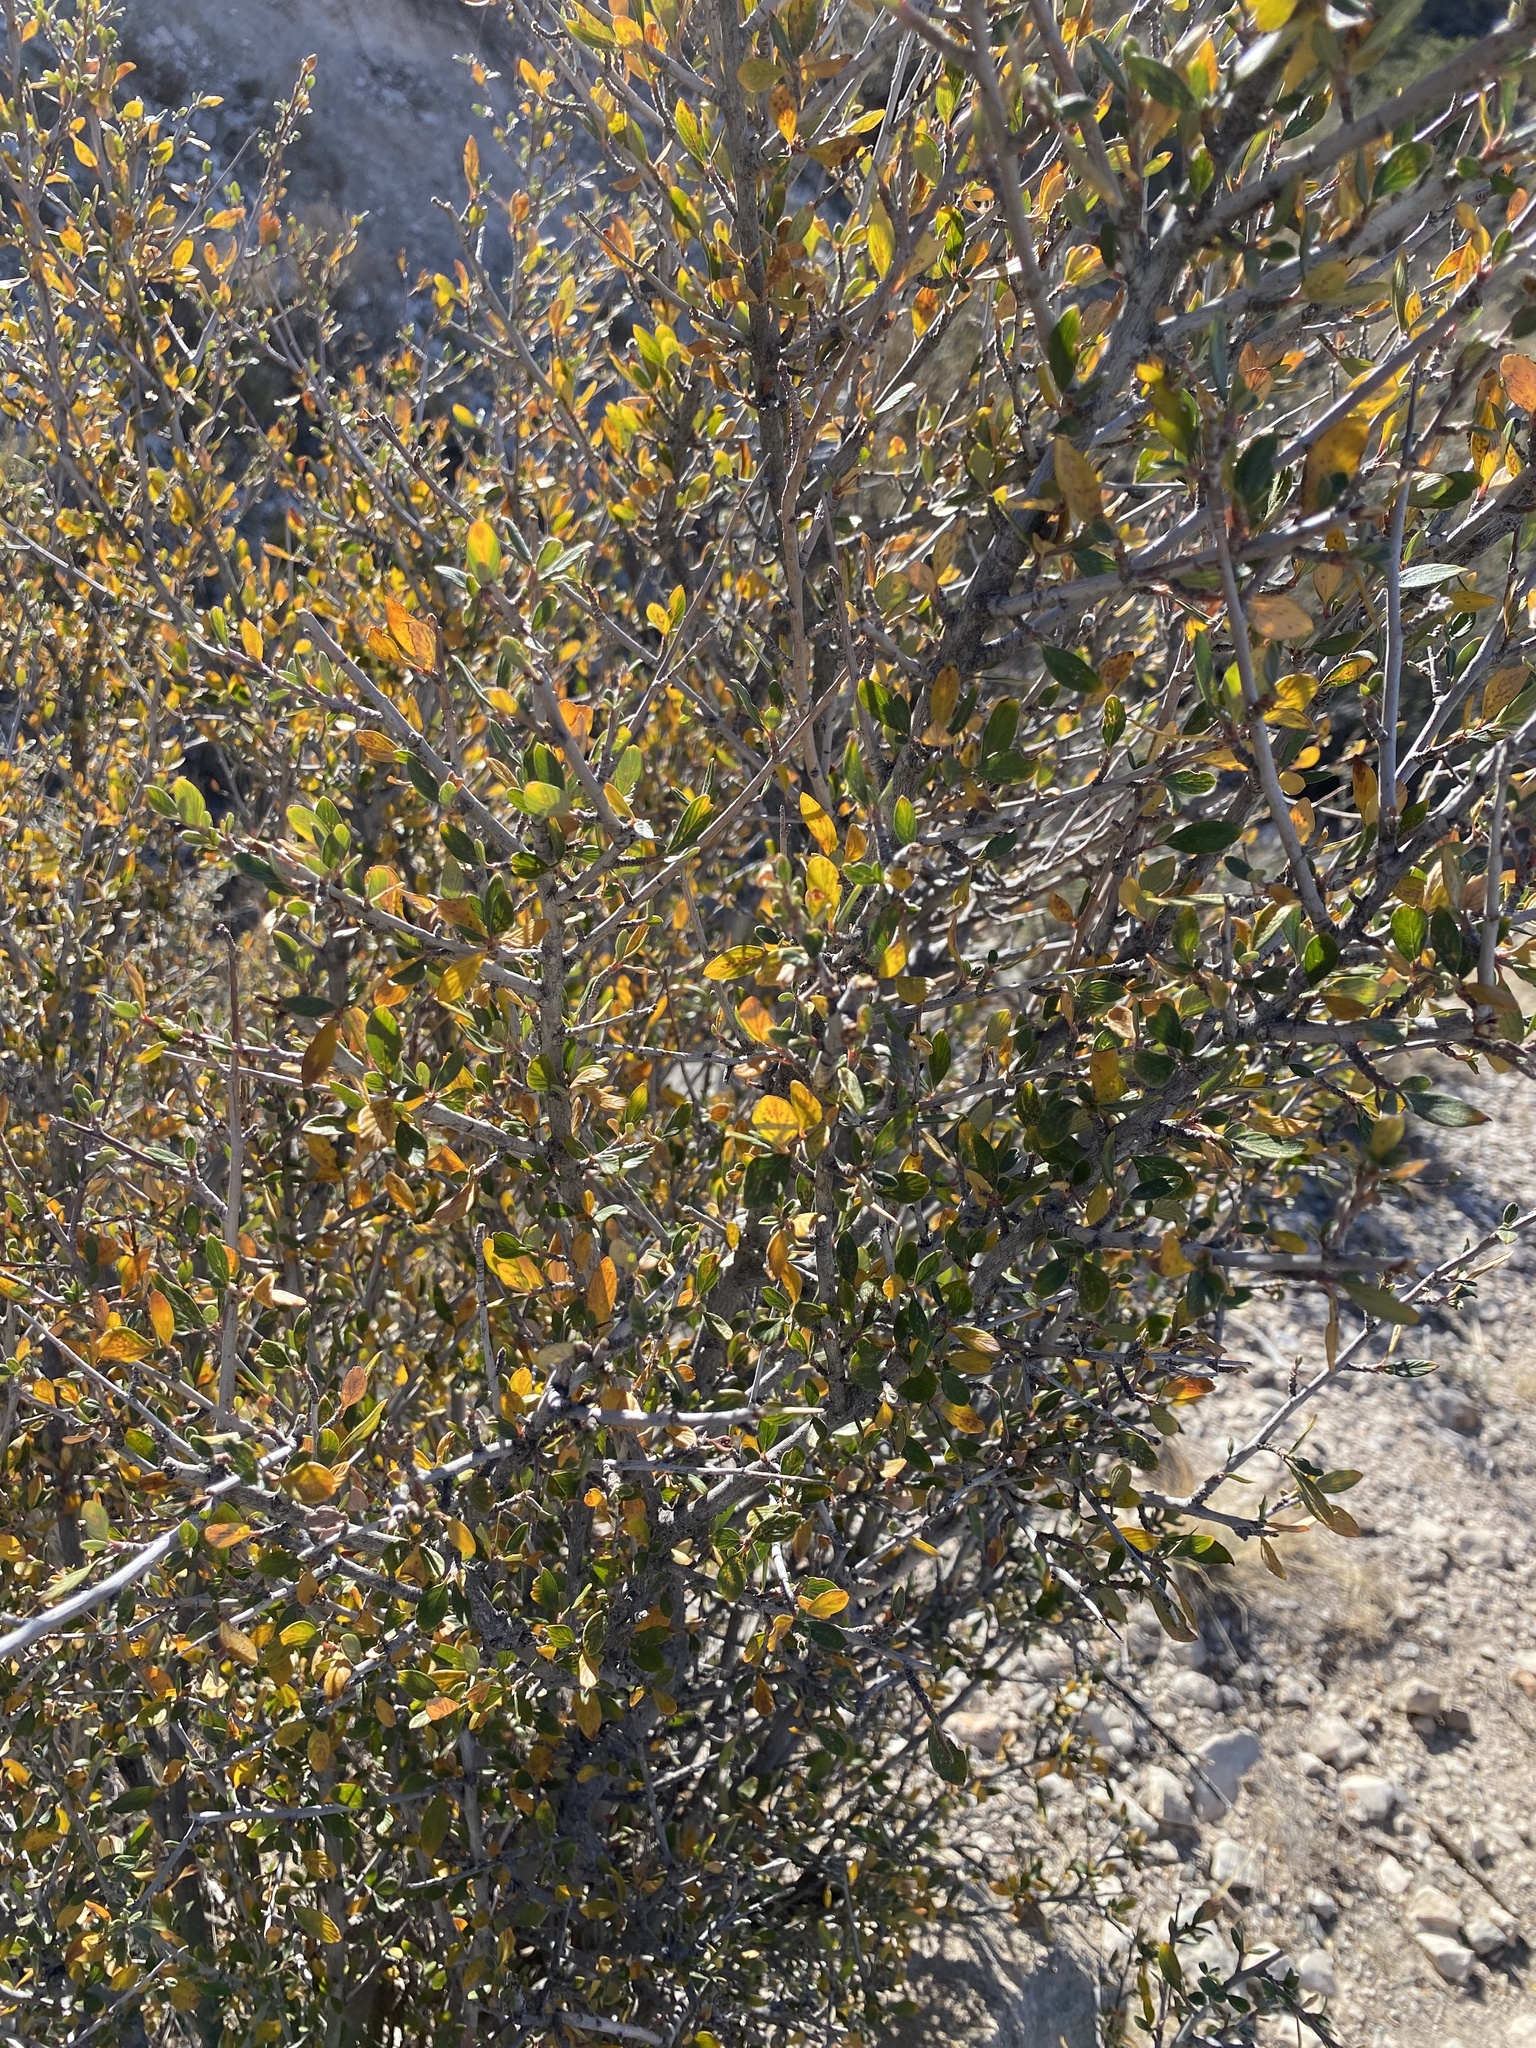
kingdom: Plantae
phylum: Tracheophyta
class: Magnoliopsida
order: Rosales
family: Rosaceae
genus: Cercocarpus
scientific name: Cercocarpus breviflorus
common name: Wright's mountain-mahogany
